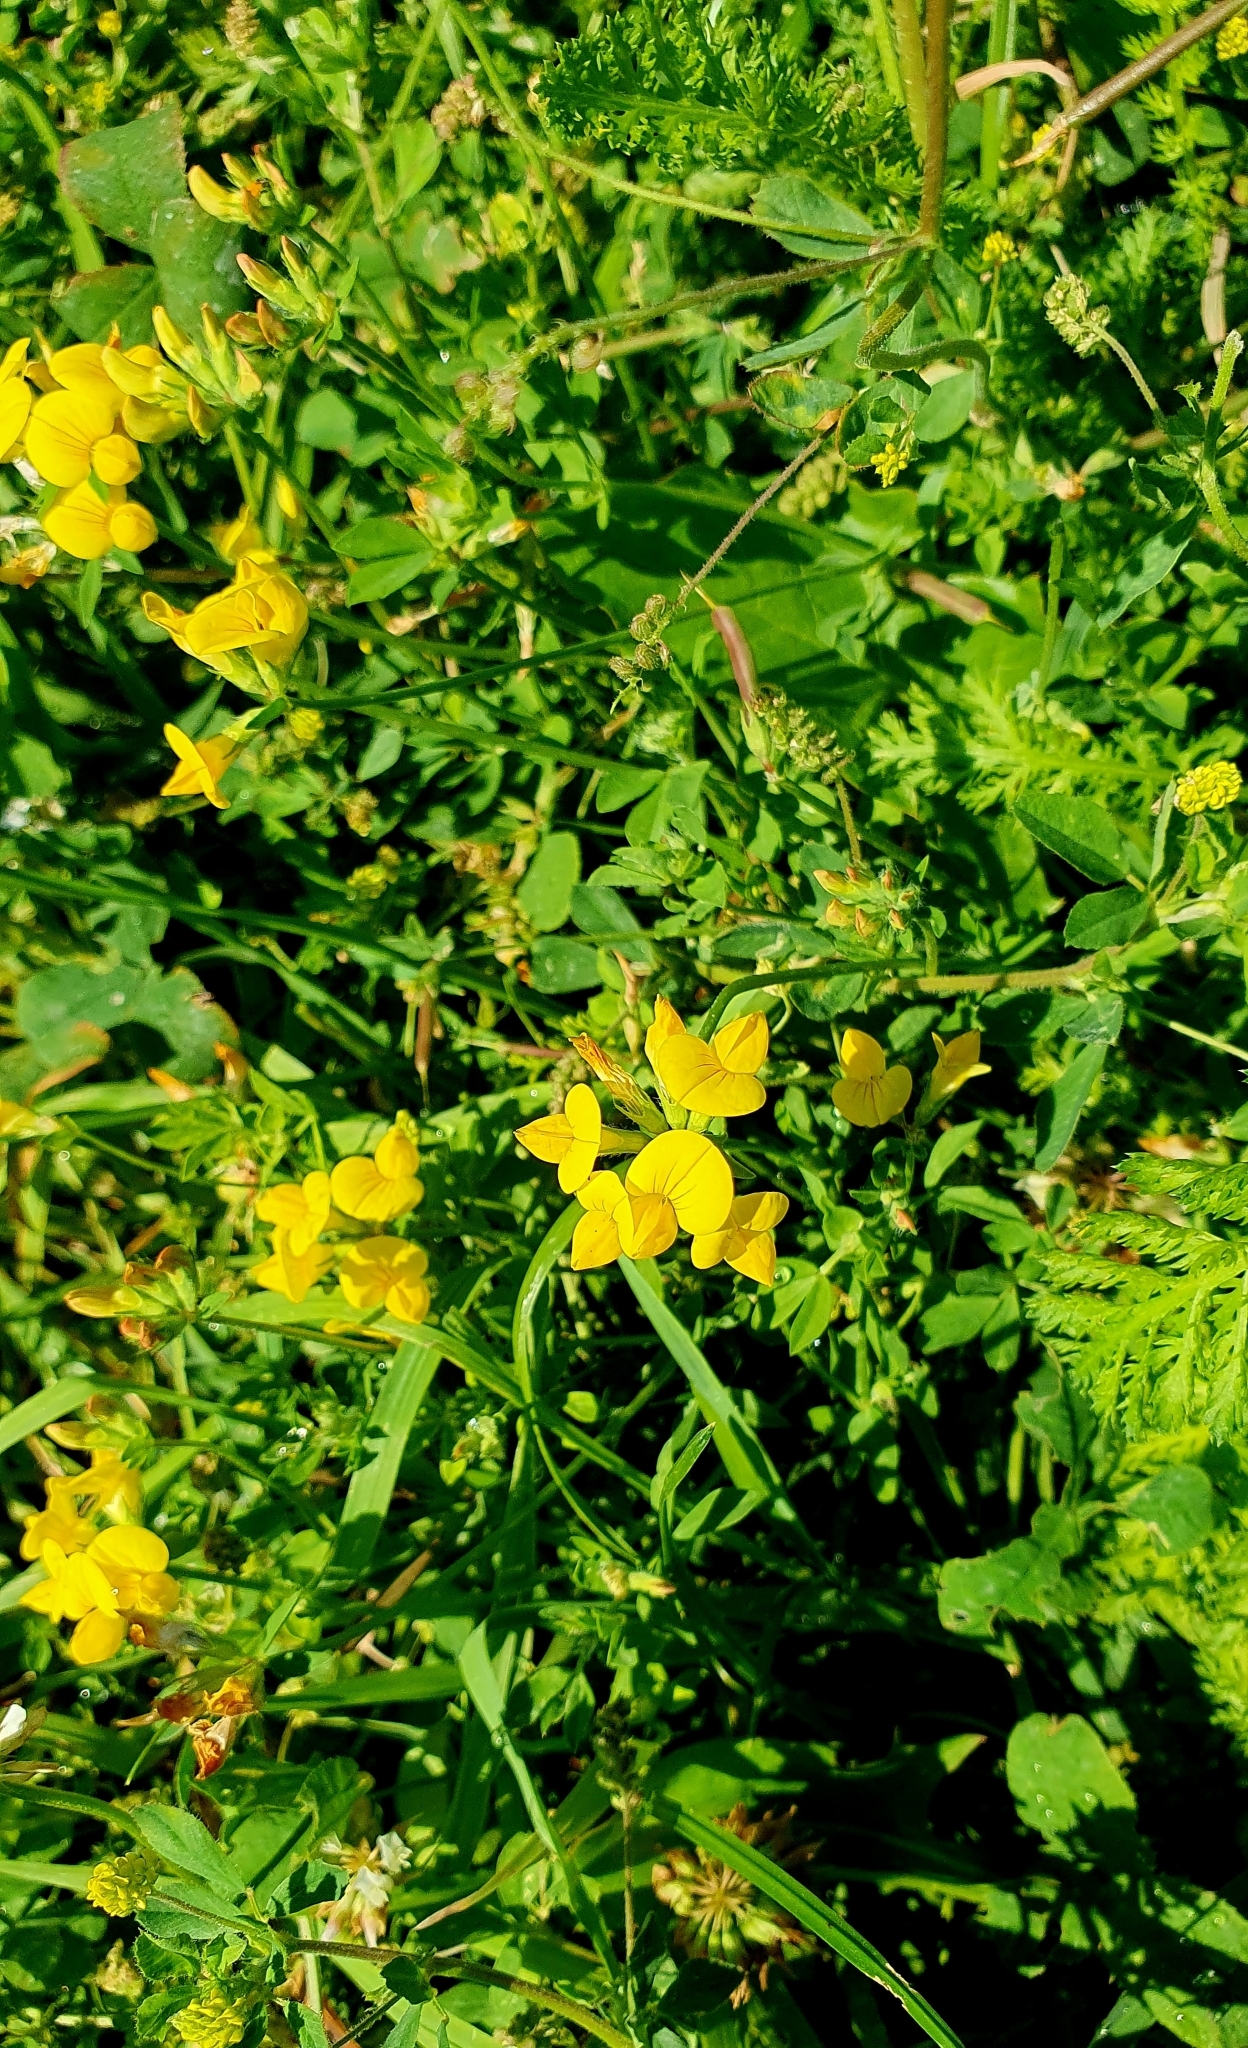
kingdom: Plantae
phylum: Tracheophyta
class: Magnoliopsida
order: Fabales
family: Fabaceae
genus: Lotus
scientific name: Lotus corniculatus
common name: Common bird's-foot-trefoil
